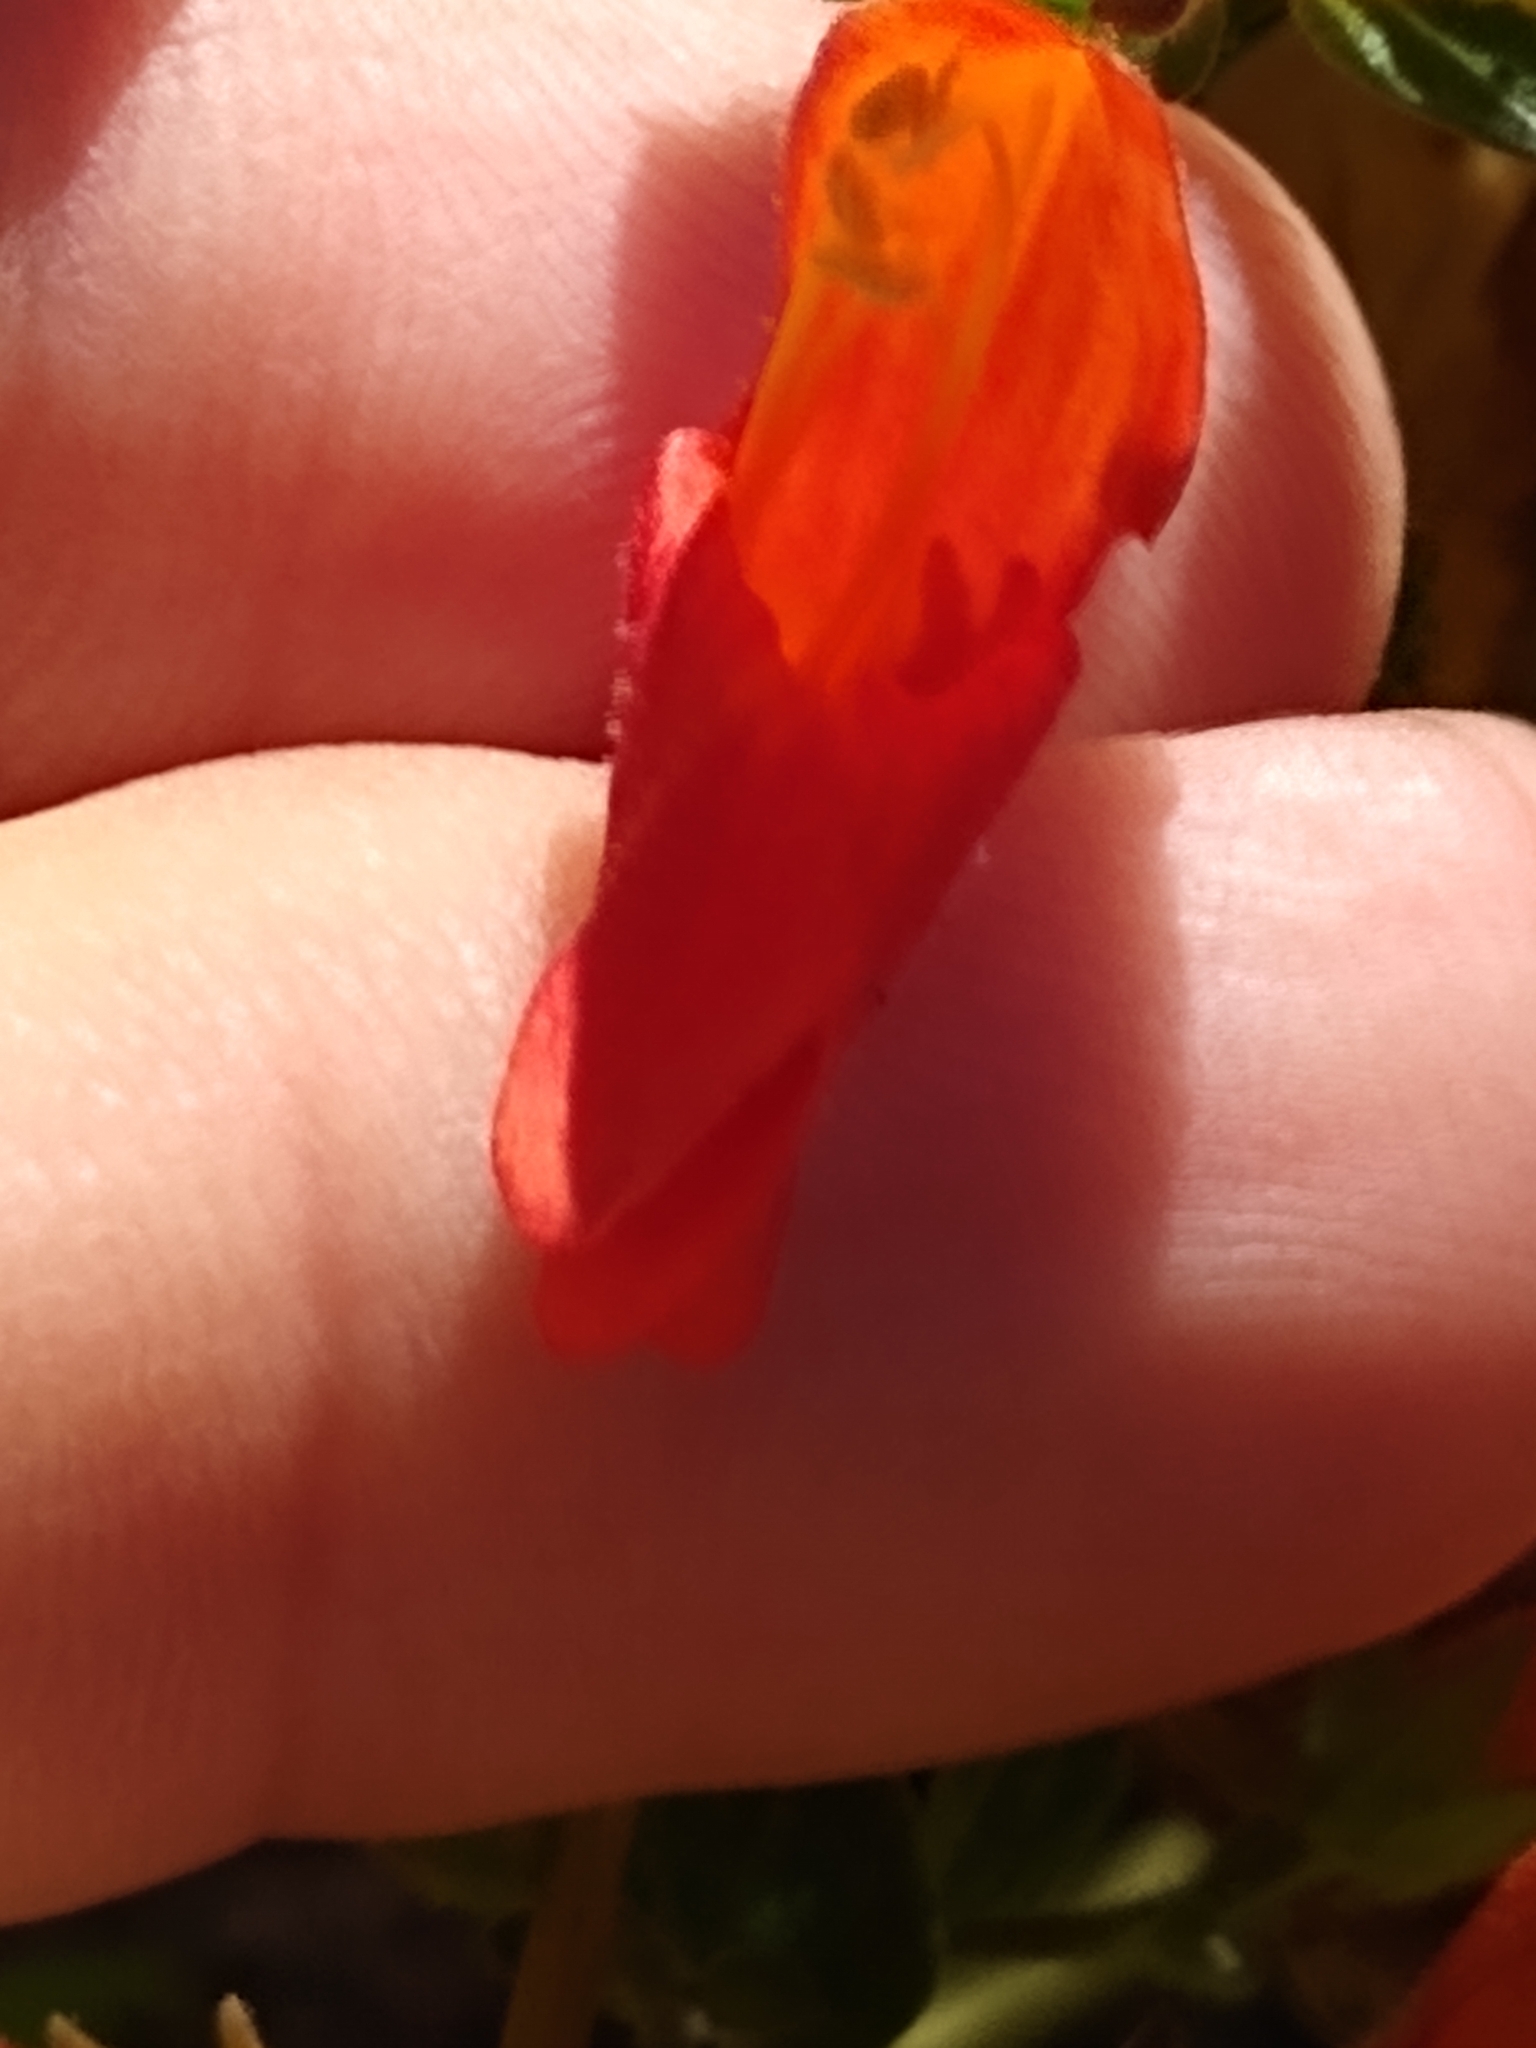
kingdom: Plantae
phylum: Tracheophyta
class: Magnoliopsida
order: Lamiales
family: Plantaginaceae
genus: Keckiella
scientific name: Keckiella ternata
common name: Scarlet keckiella
